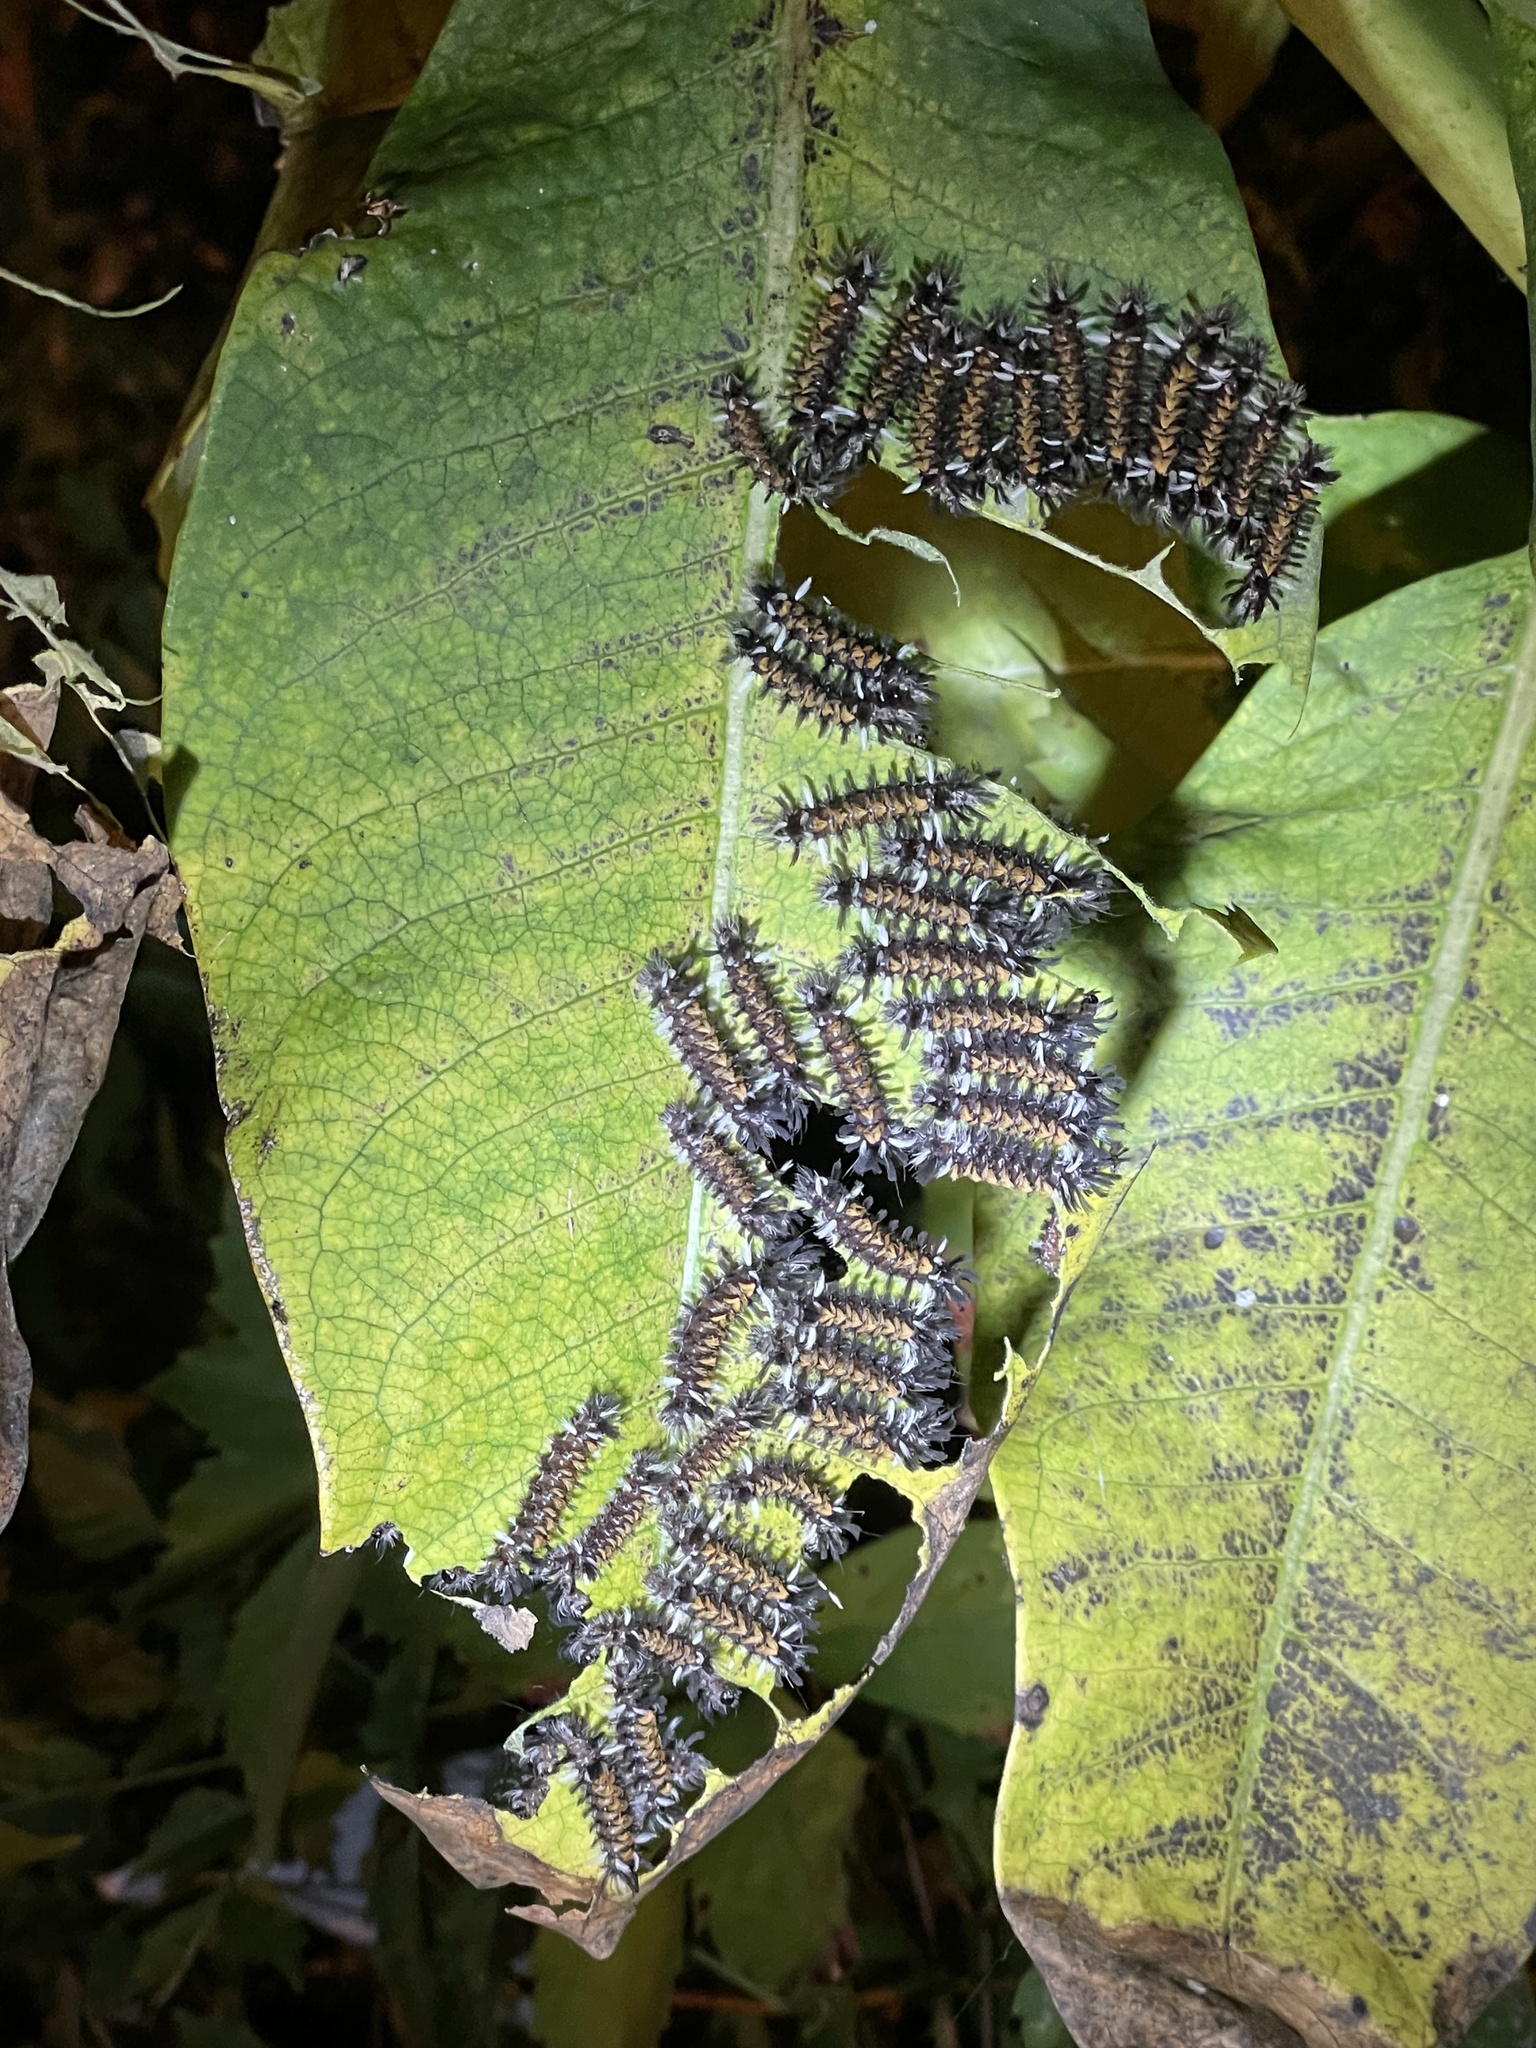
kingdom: Animalia
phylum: Arthropoda
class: Insecta
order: Lepidoptera
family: Erebidae
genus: Euchaetes
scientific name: Euchaetes egle
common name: Milkweed tussock moth
